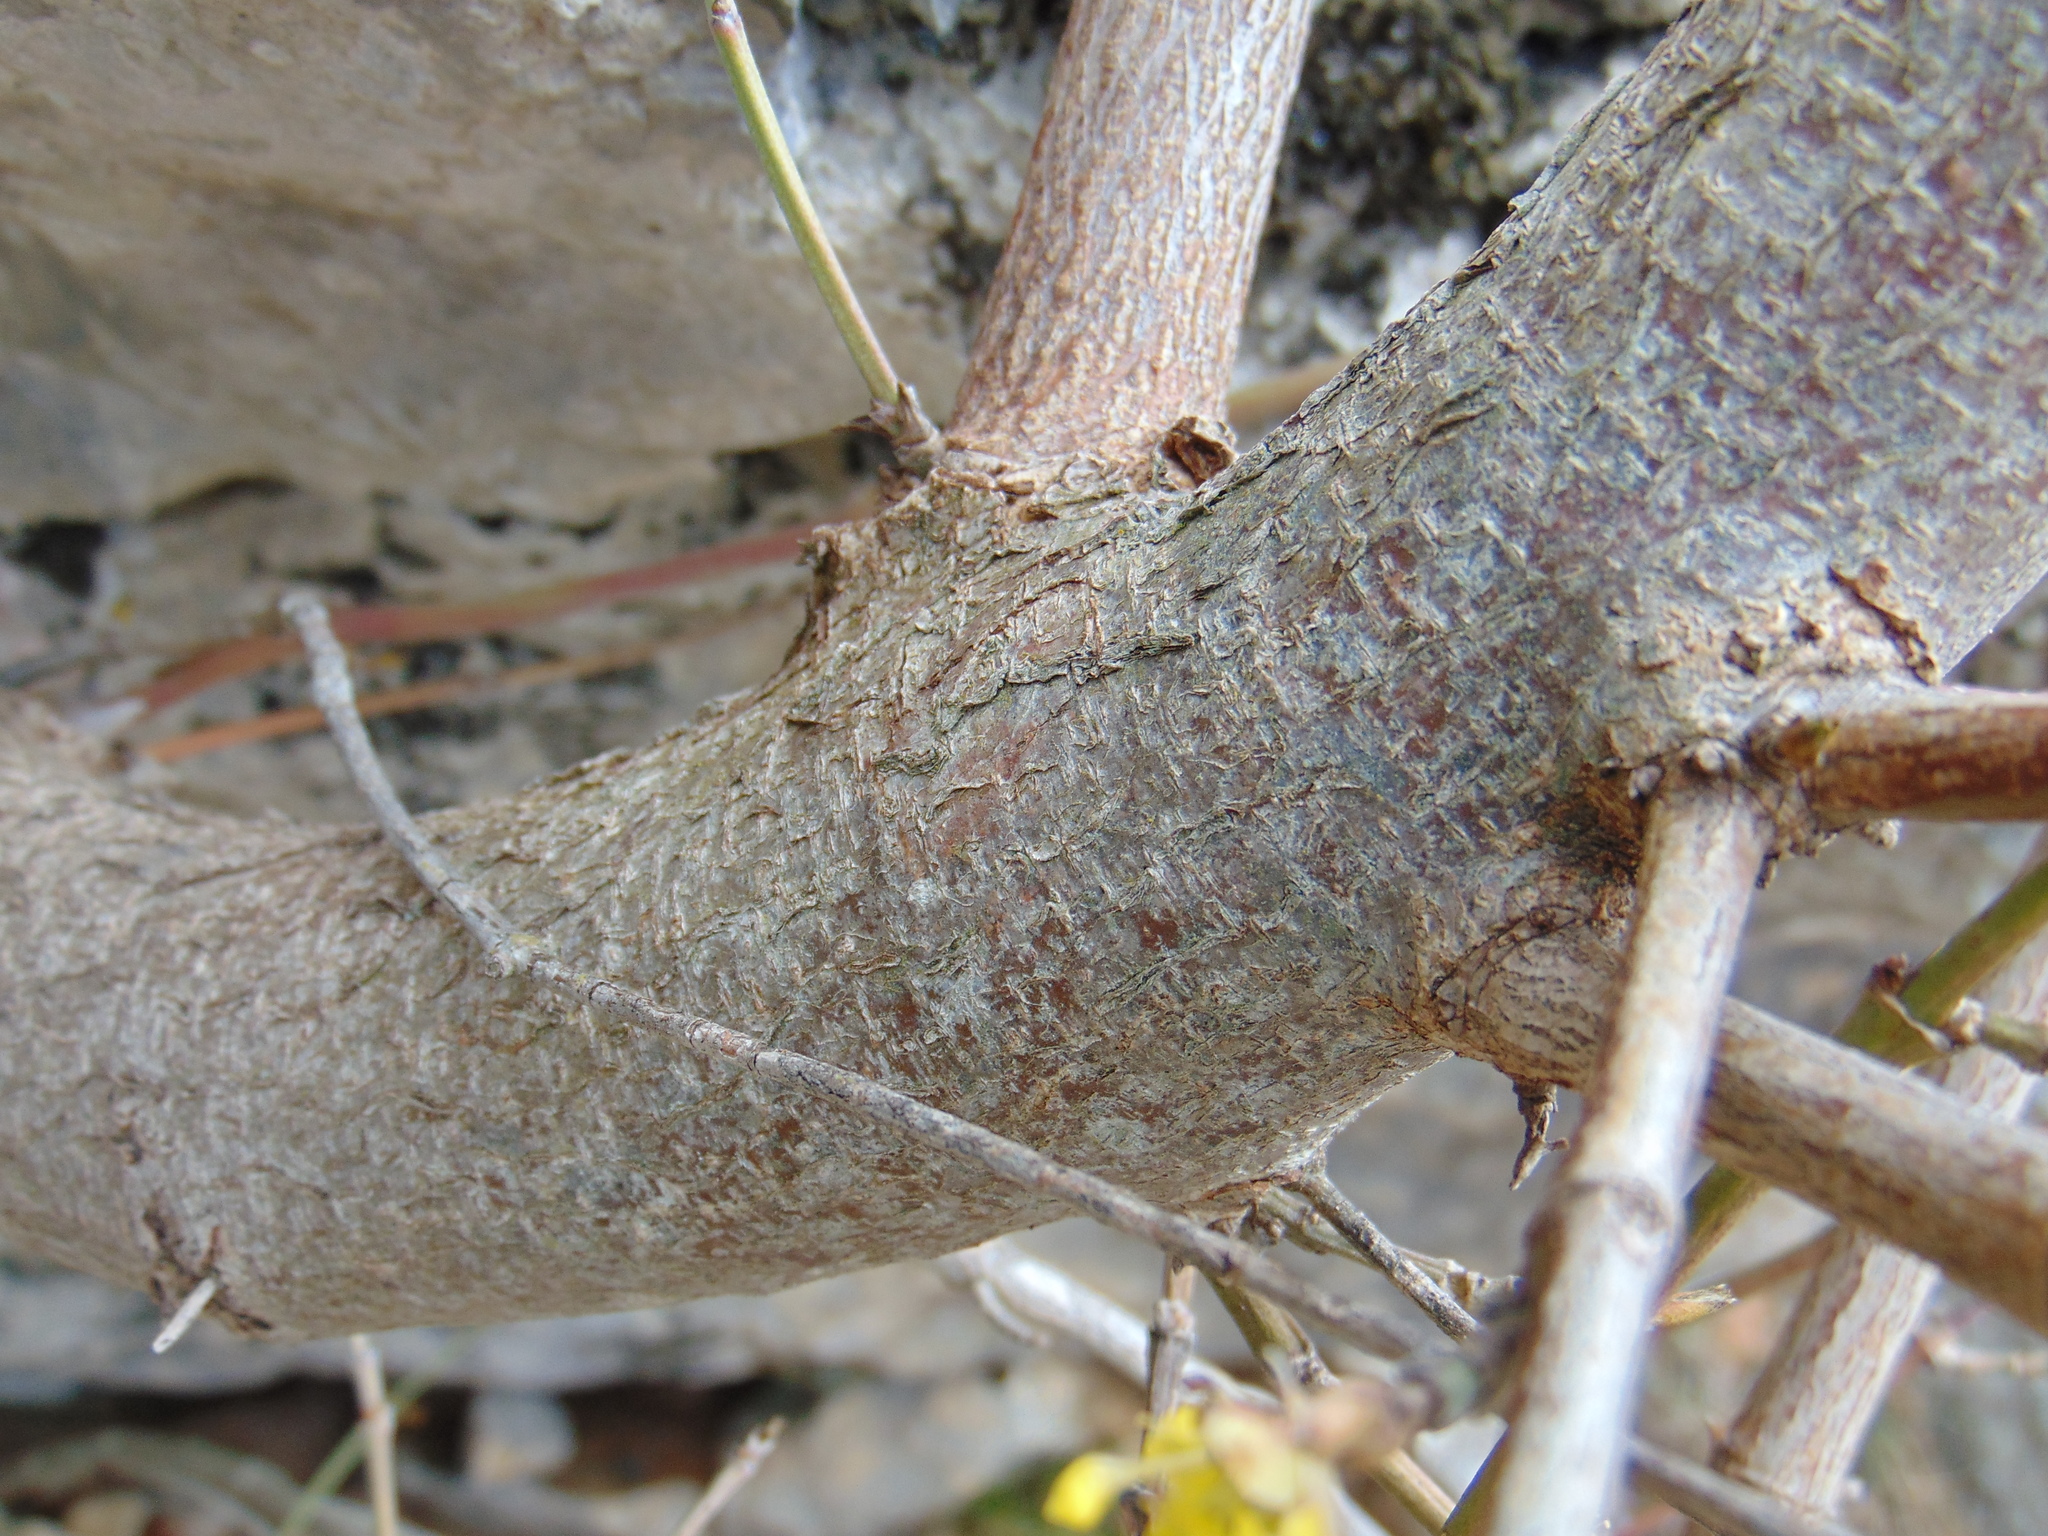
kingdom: Plantae
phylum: Tracheophyta
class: Magnoliopsida
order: Cornales
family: Cornaceae
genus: Cornus
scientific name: Cornus mas
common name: Cornelian-cherry
